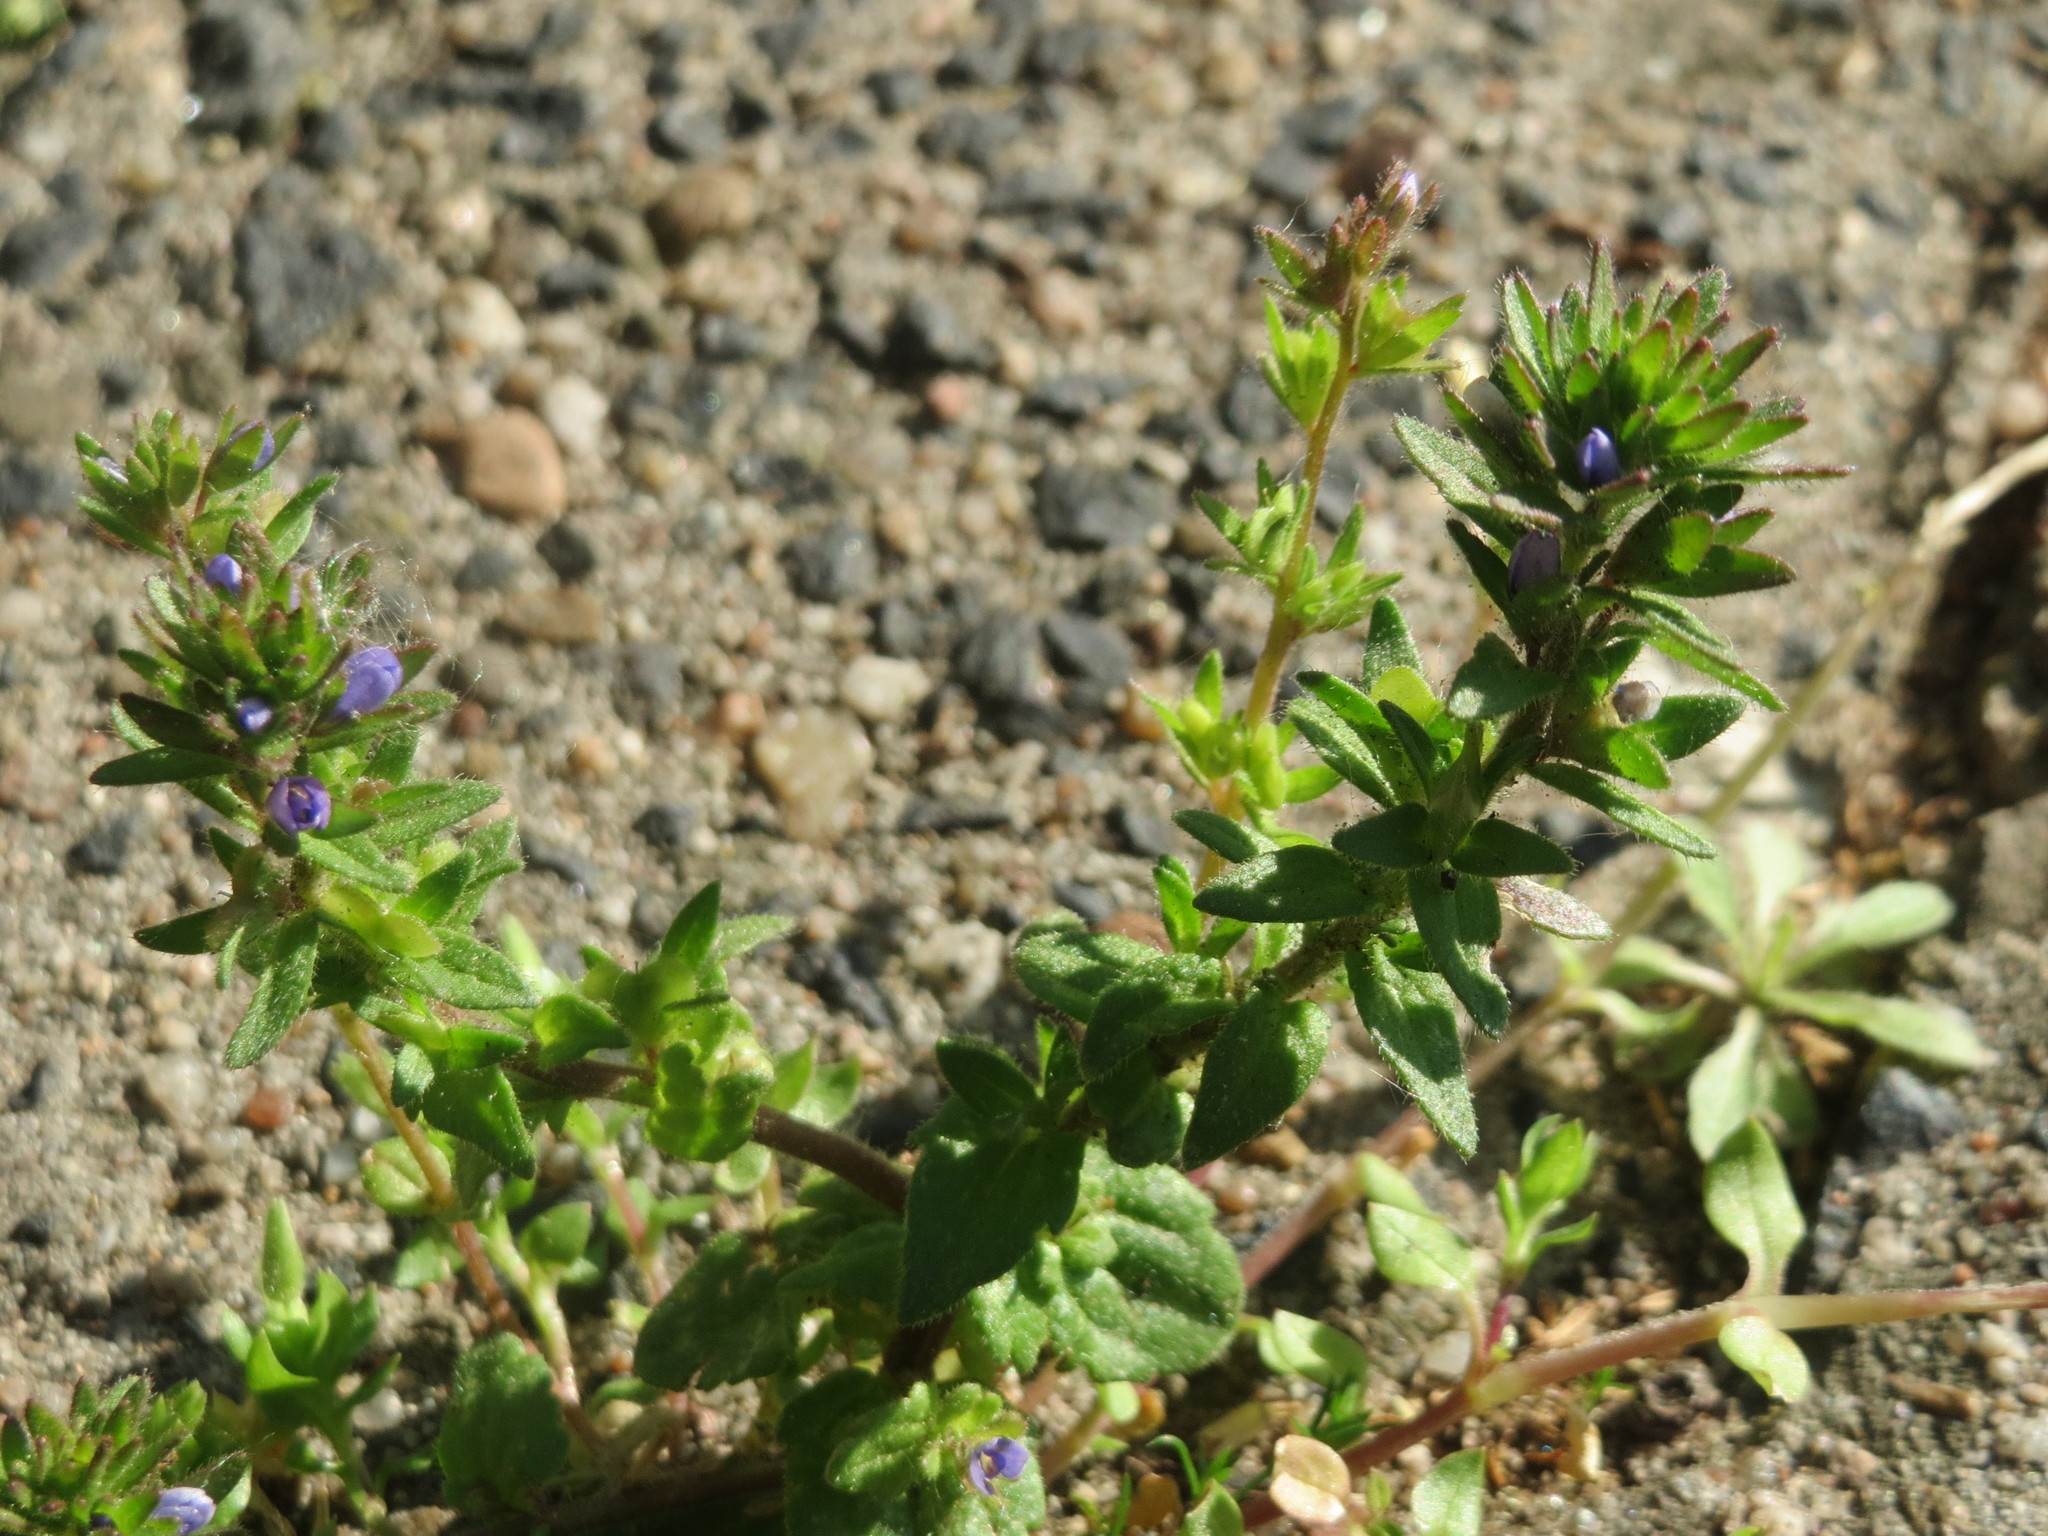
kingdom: Plantae
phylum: Tracheophyta
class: Magnoliopsida
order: Lamiales
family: Plantaginaceae
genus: Veronica
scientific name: Veronica arvensis
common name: Corn speedwell
